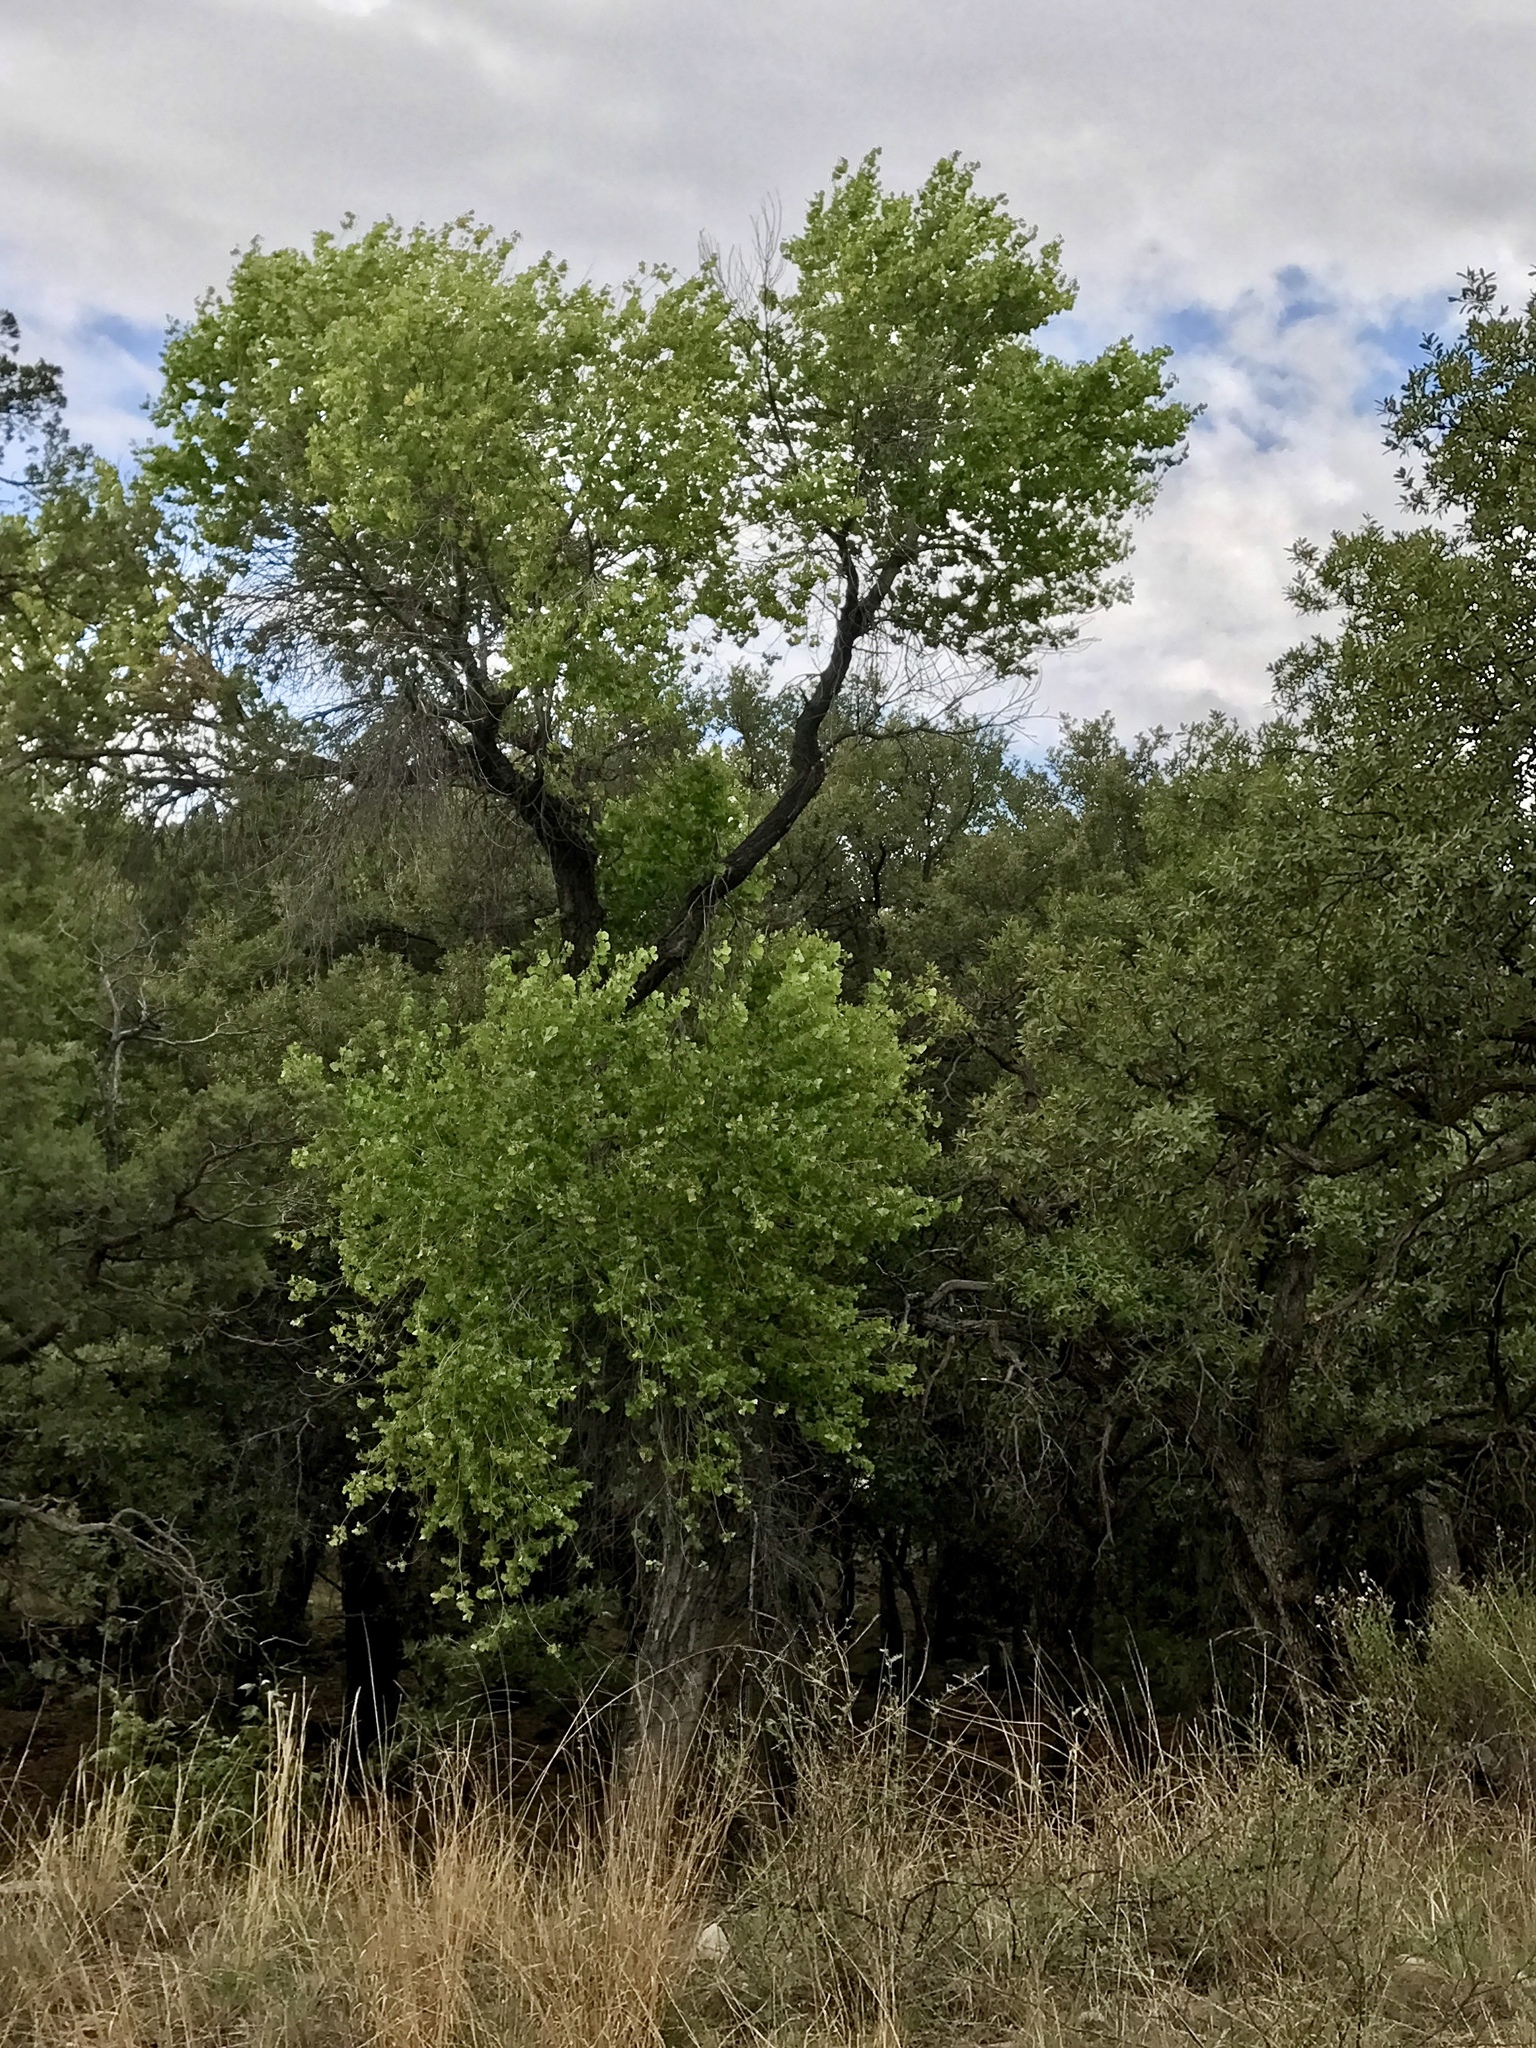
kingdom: Plantae
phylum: Tracheophyta
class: Magnoliopsida
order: Malpighiales
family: Salicaceae
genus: Populus
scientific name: Populus fremontii
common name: Fremont's cottonwood
